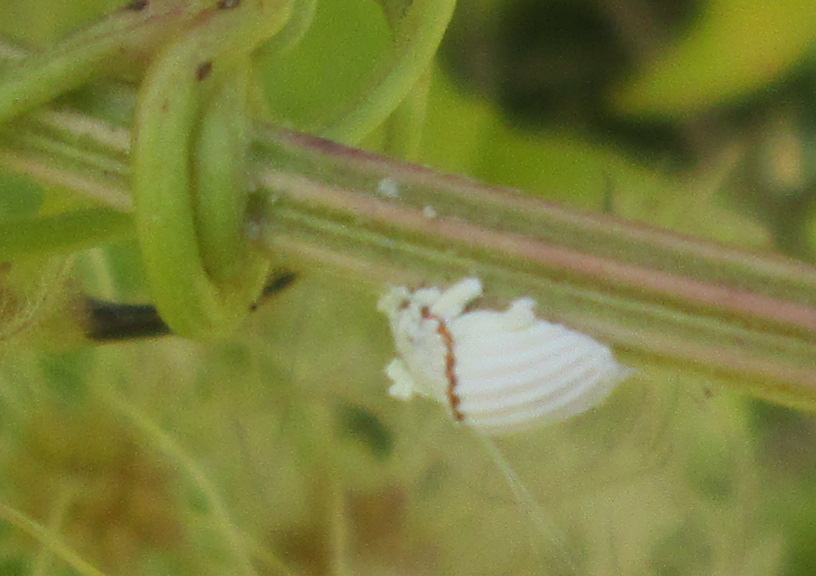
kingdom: Animalia
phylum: Arthropoda
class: Insecta
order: Hemiptera
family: Margarodidae
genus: Icerya
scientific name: Icerya purchasi
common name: Cottony cushion scale
